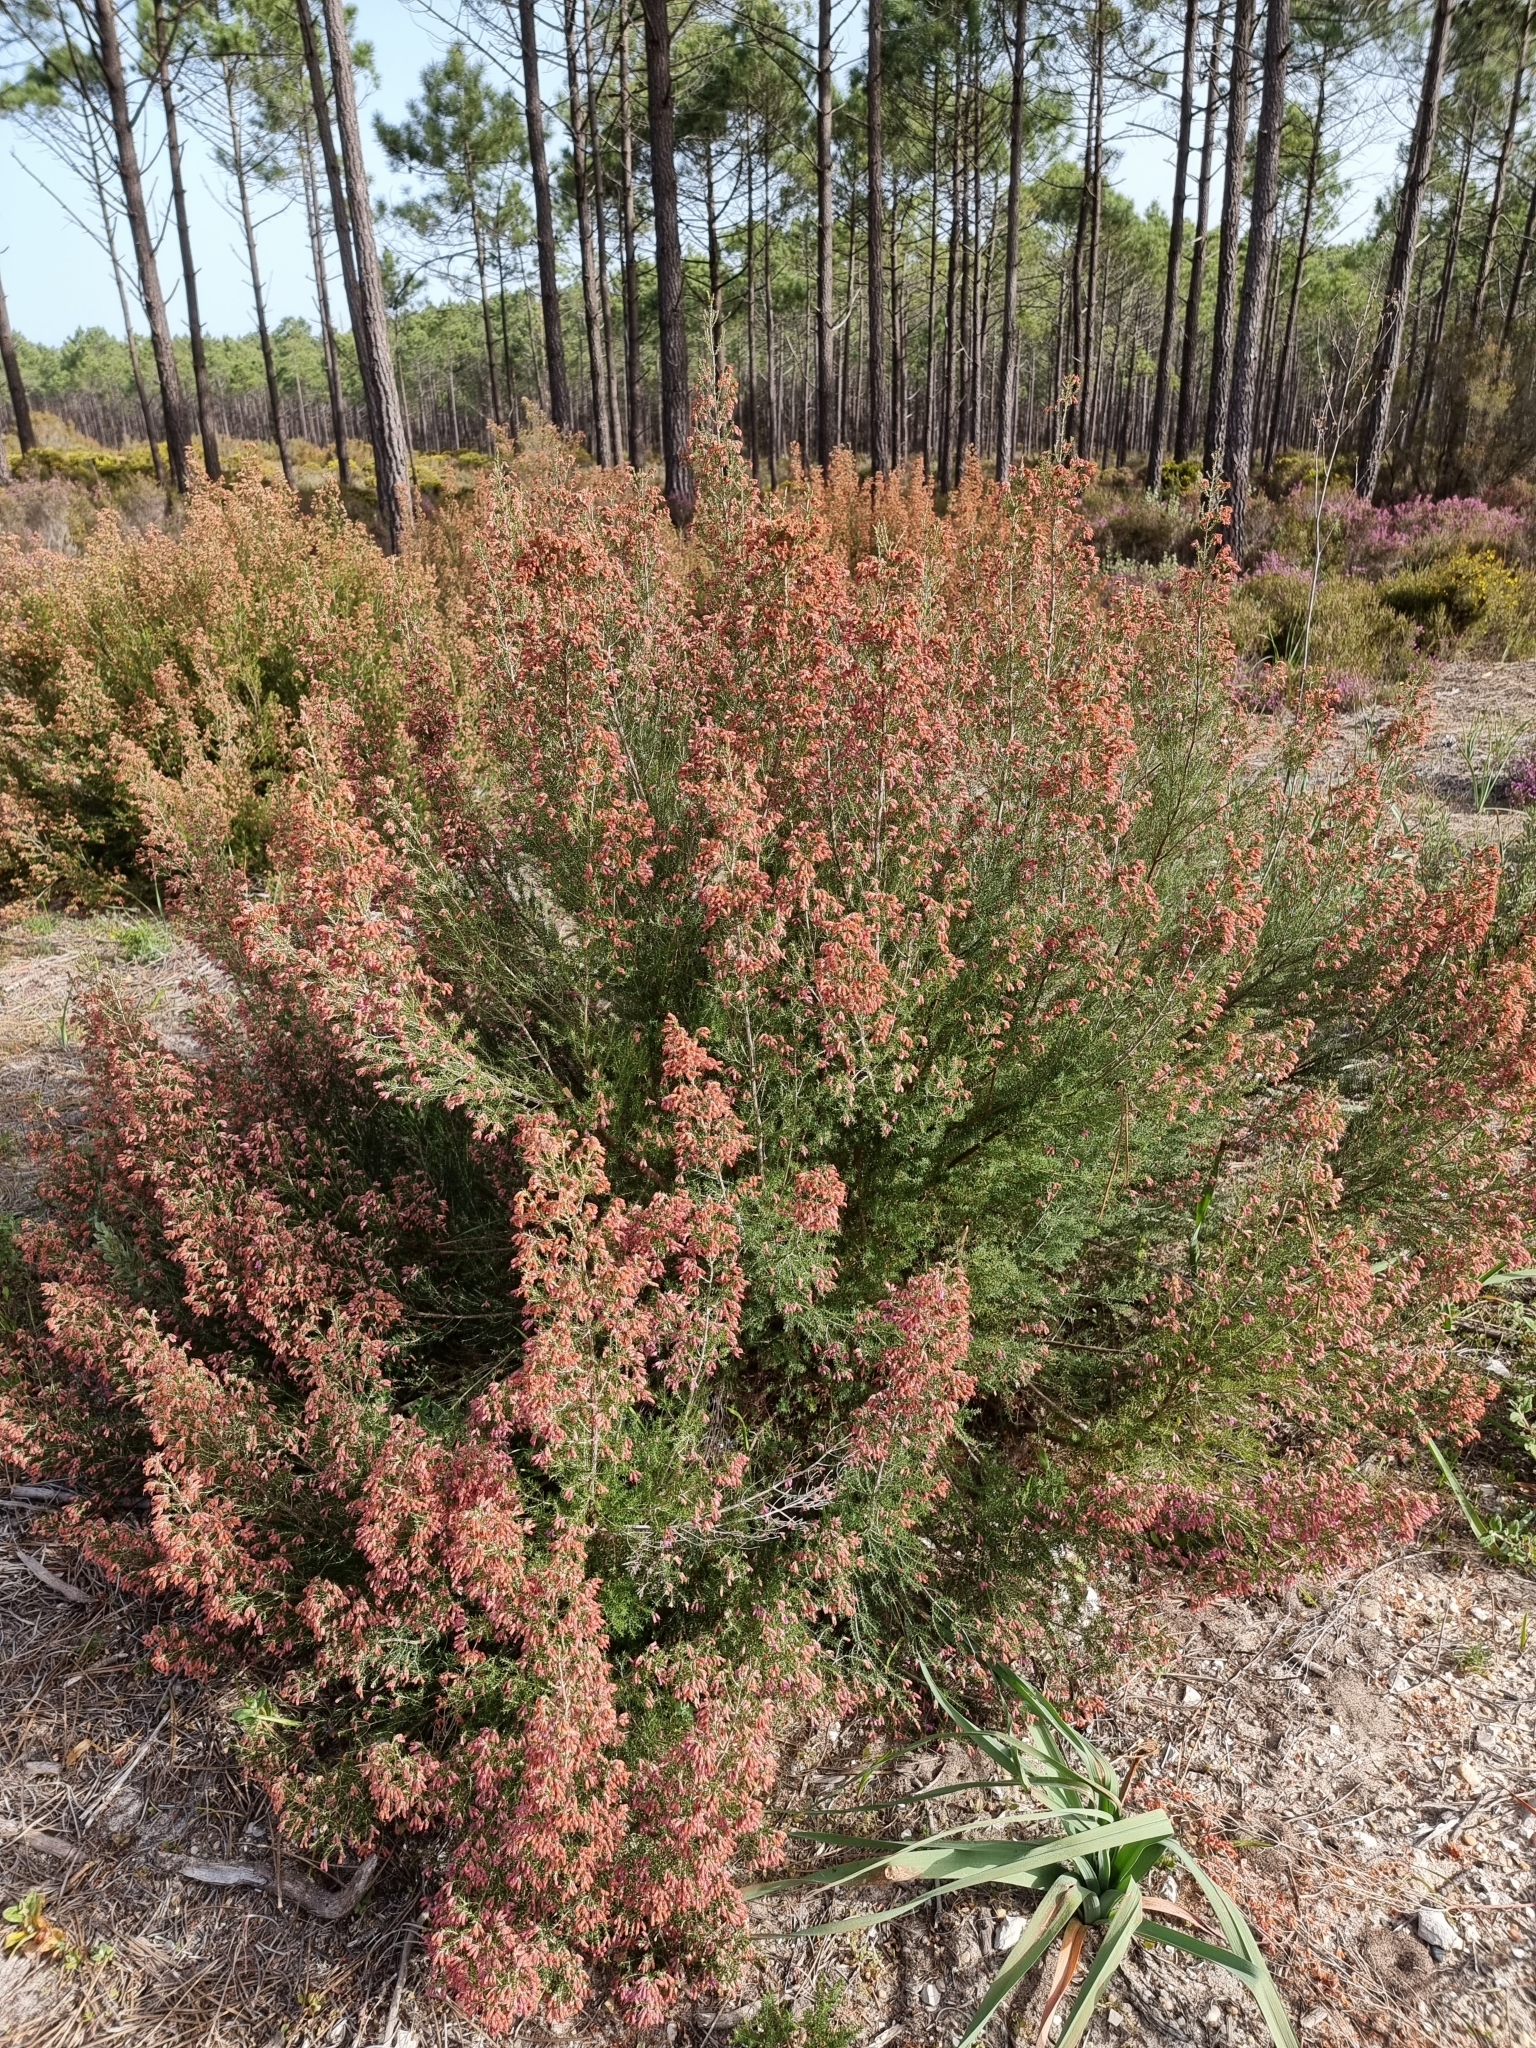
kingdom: Plantae
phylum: Tracheophyta
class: Magnoliopsida
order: Ericales
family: Ericaceae
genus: Erica
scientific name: Erica australis
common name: Spanish heath
